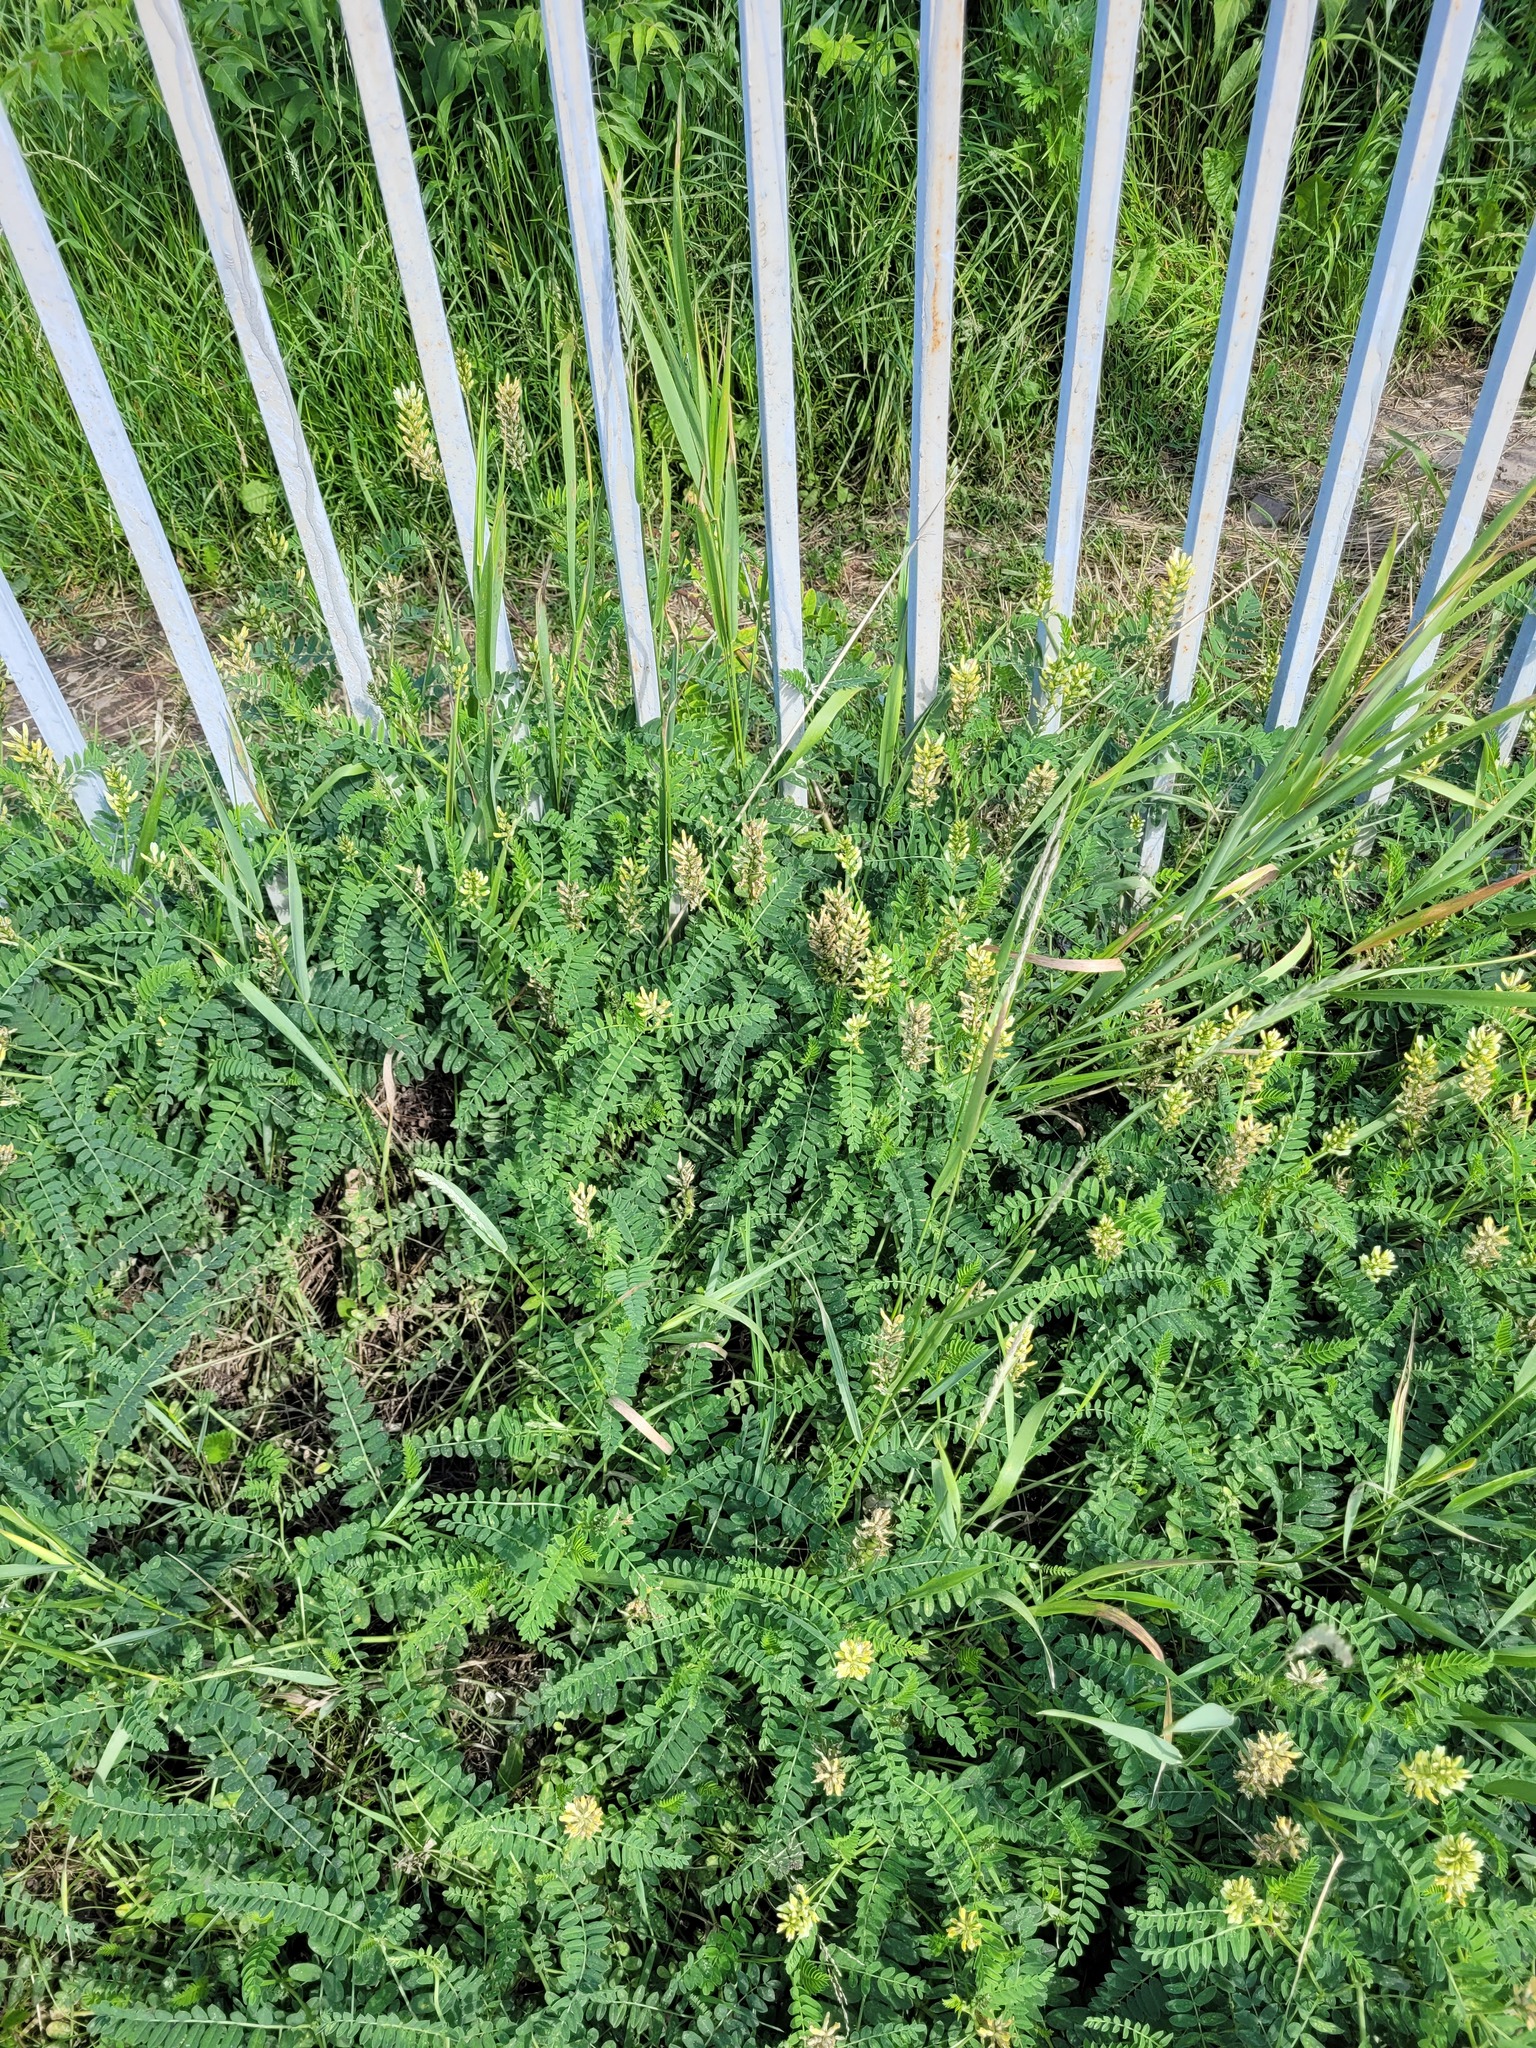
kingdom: Plantae
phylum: Tracheophyta
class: Magnoliopsida
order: Fabales
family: Fabaceae
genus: Astragalus
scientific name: Astragalus cicer
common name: Chick-pea milk-vetch
